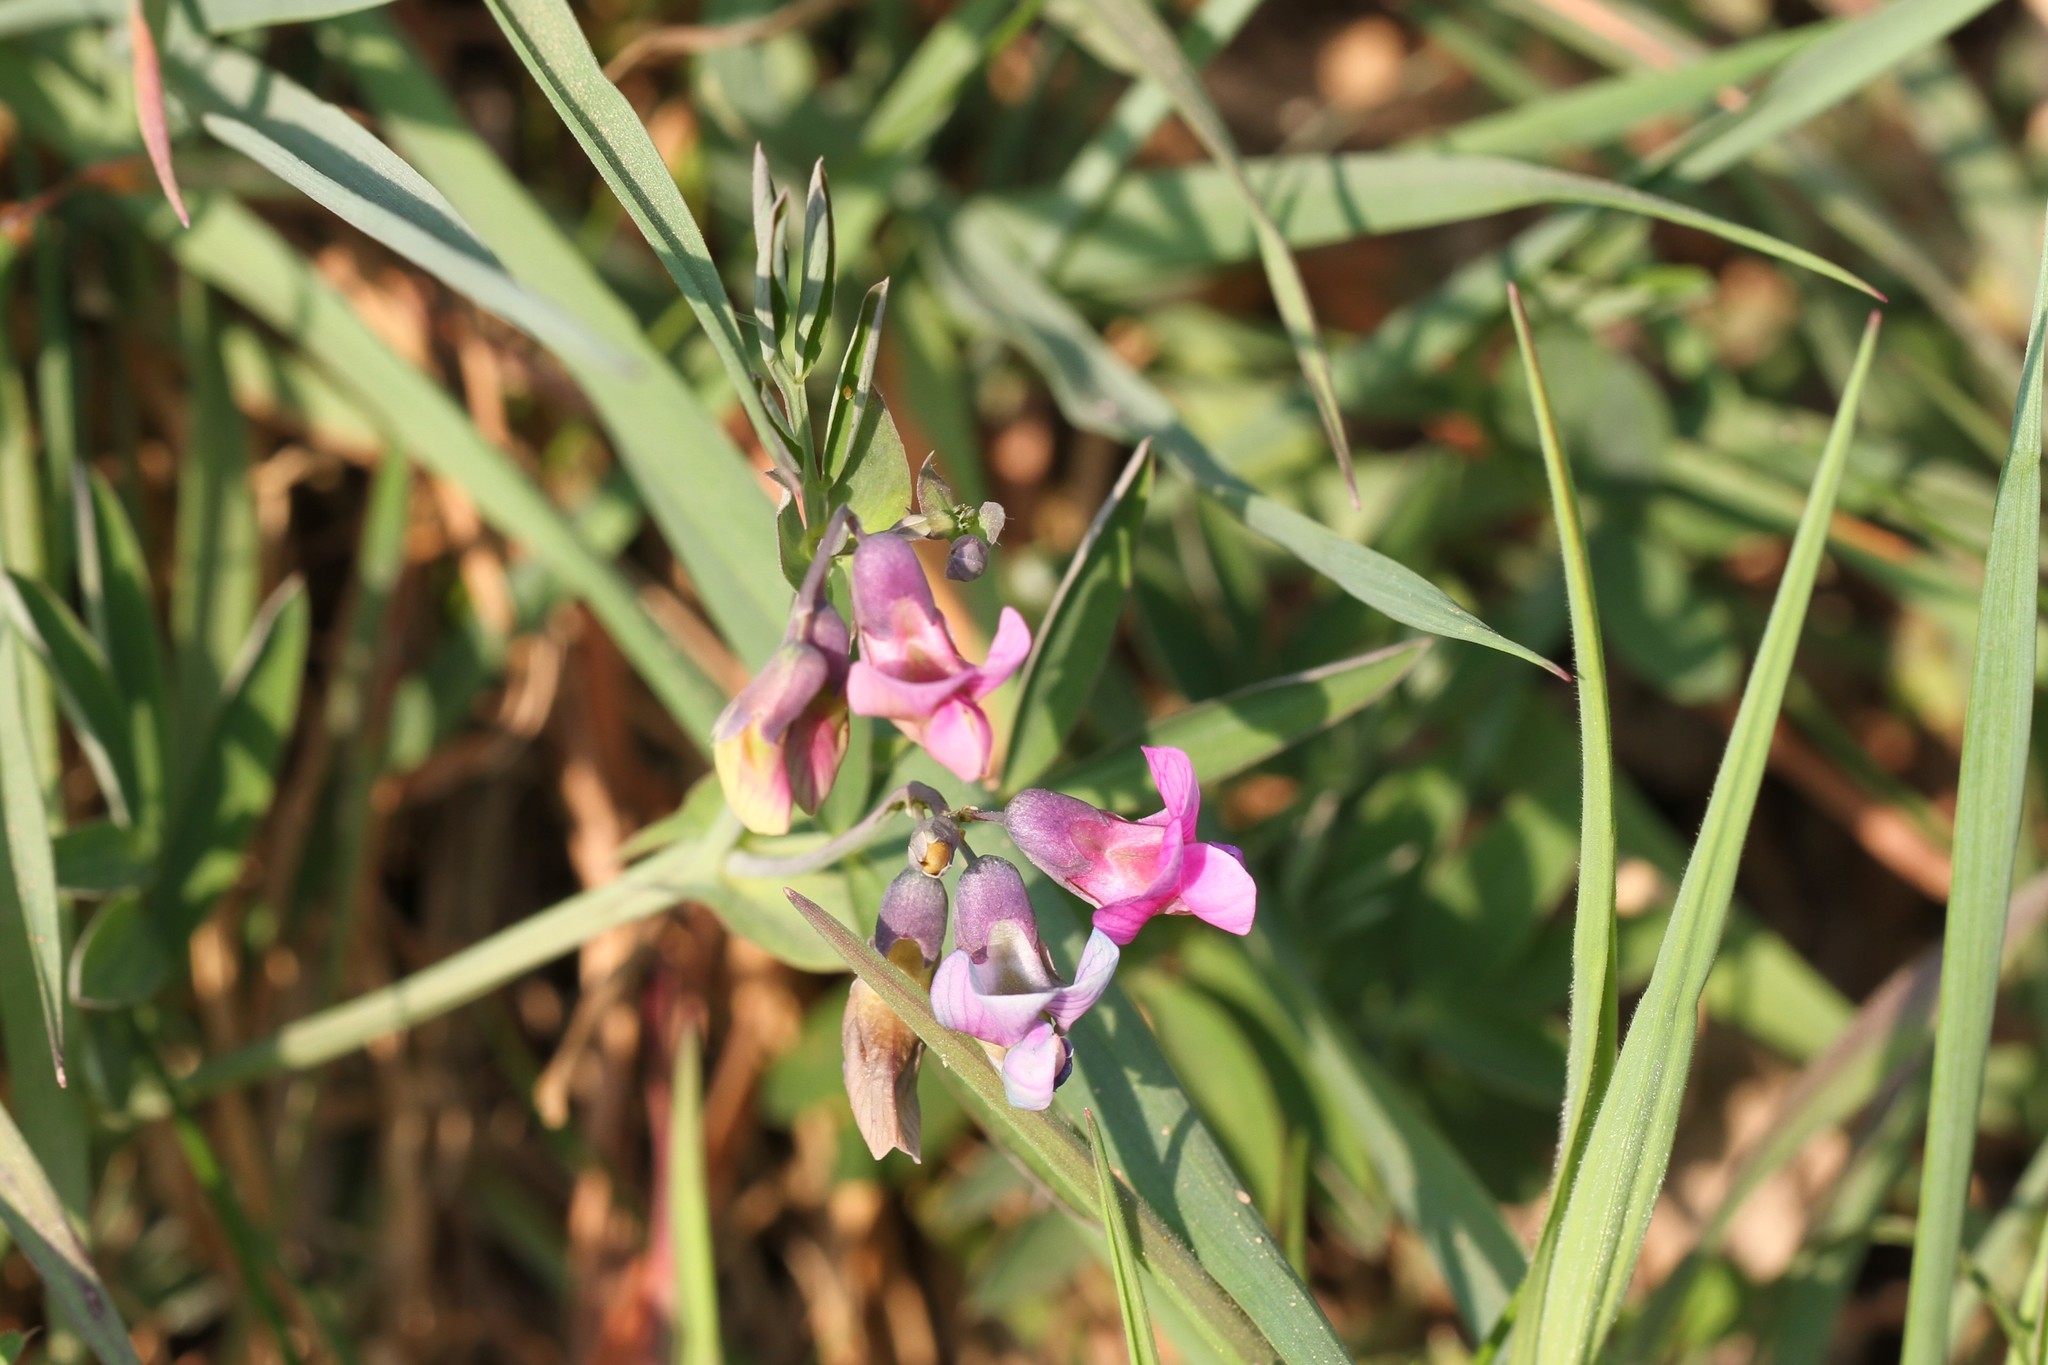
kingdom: Plantae
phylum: Tracheophyta
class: Magnoliopsida
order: Fabales
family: Fabaceae
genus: Lathyrus
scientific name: Lathyrus linifolius
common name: Bitter-vetch
